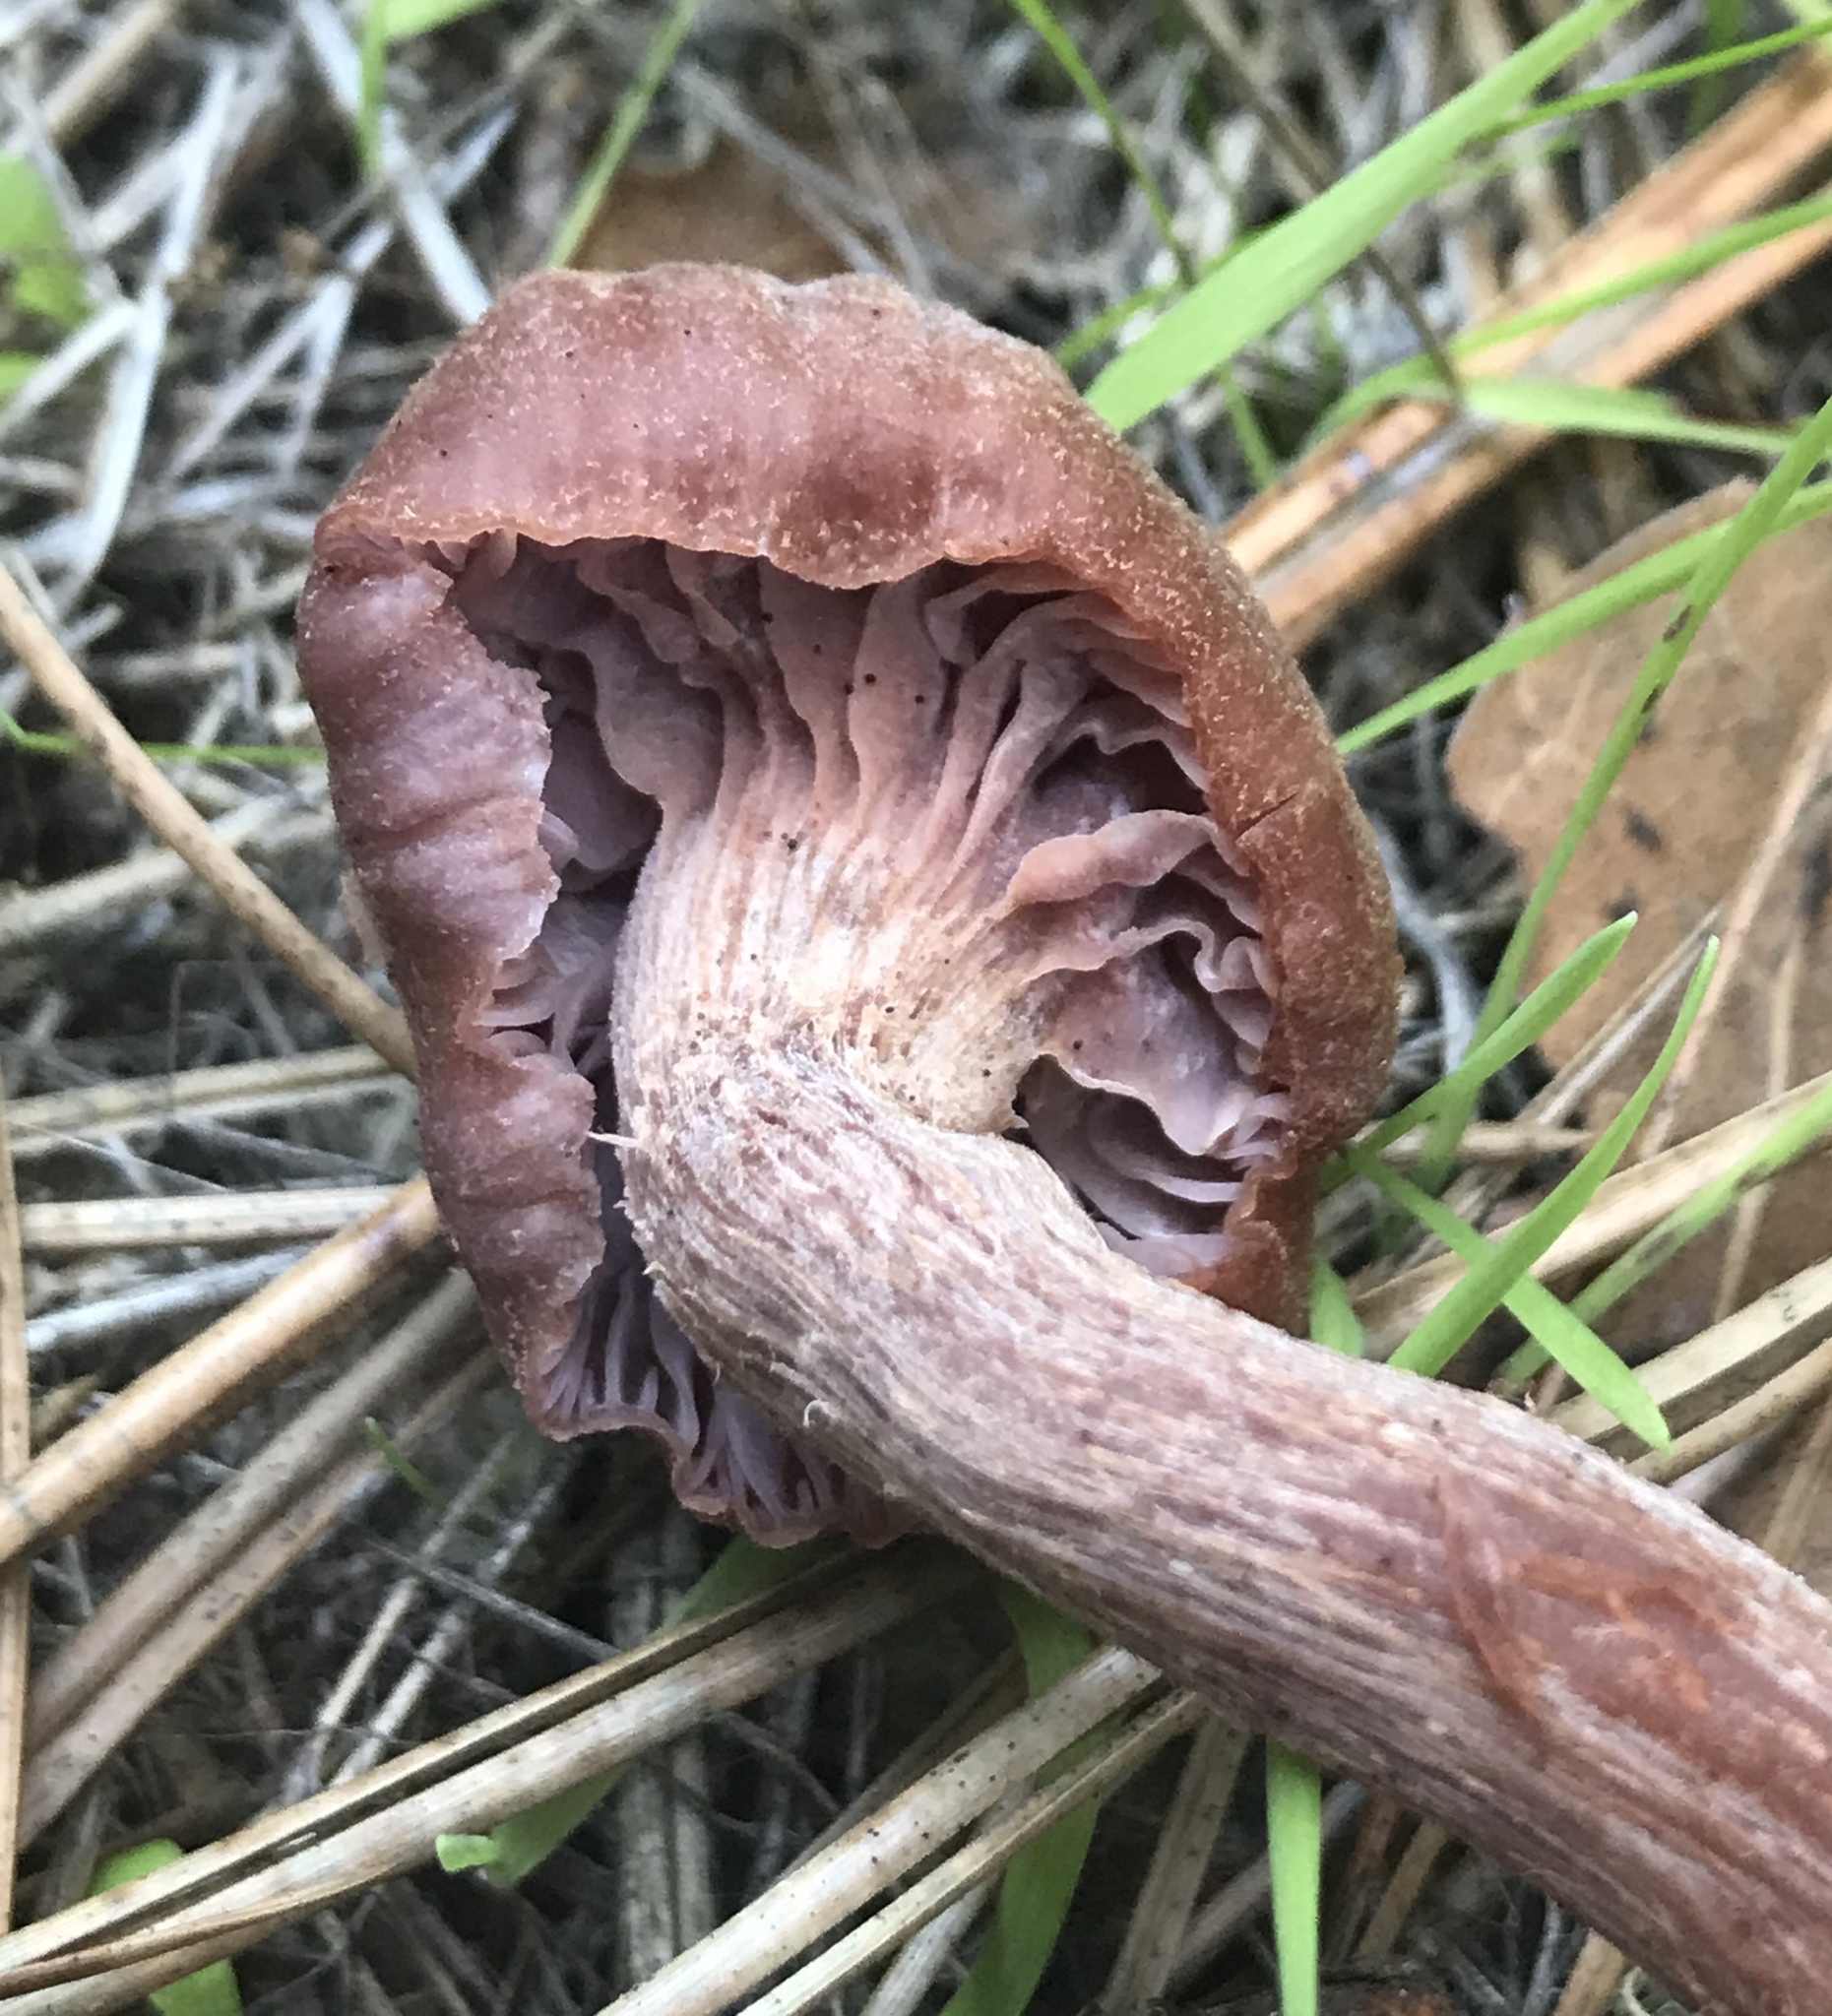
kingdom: Fungi
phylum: Basidiomycota
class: Agaricomycetes
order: Agaricales
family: Hydnangiaceae
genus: Laccaria
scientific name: Laccaria amethysteo-occidentalis
